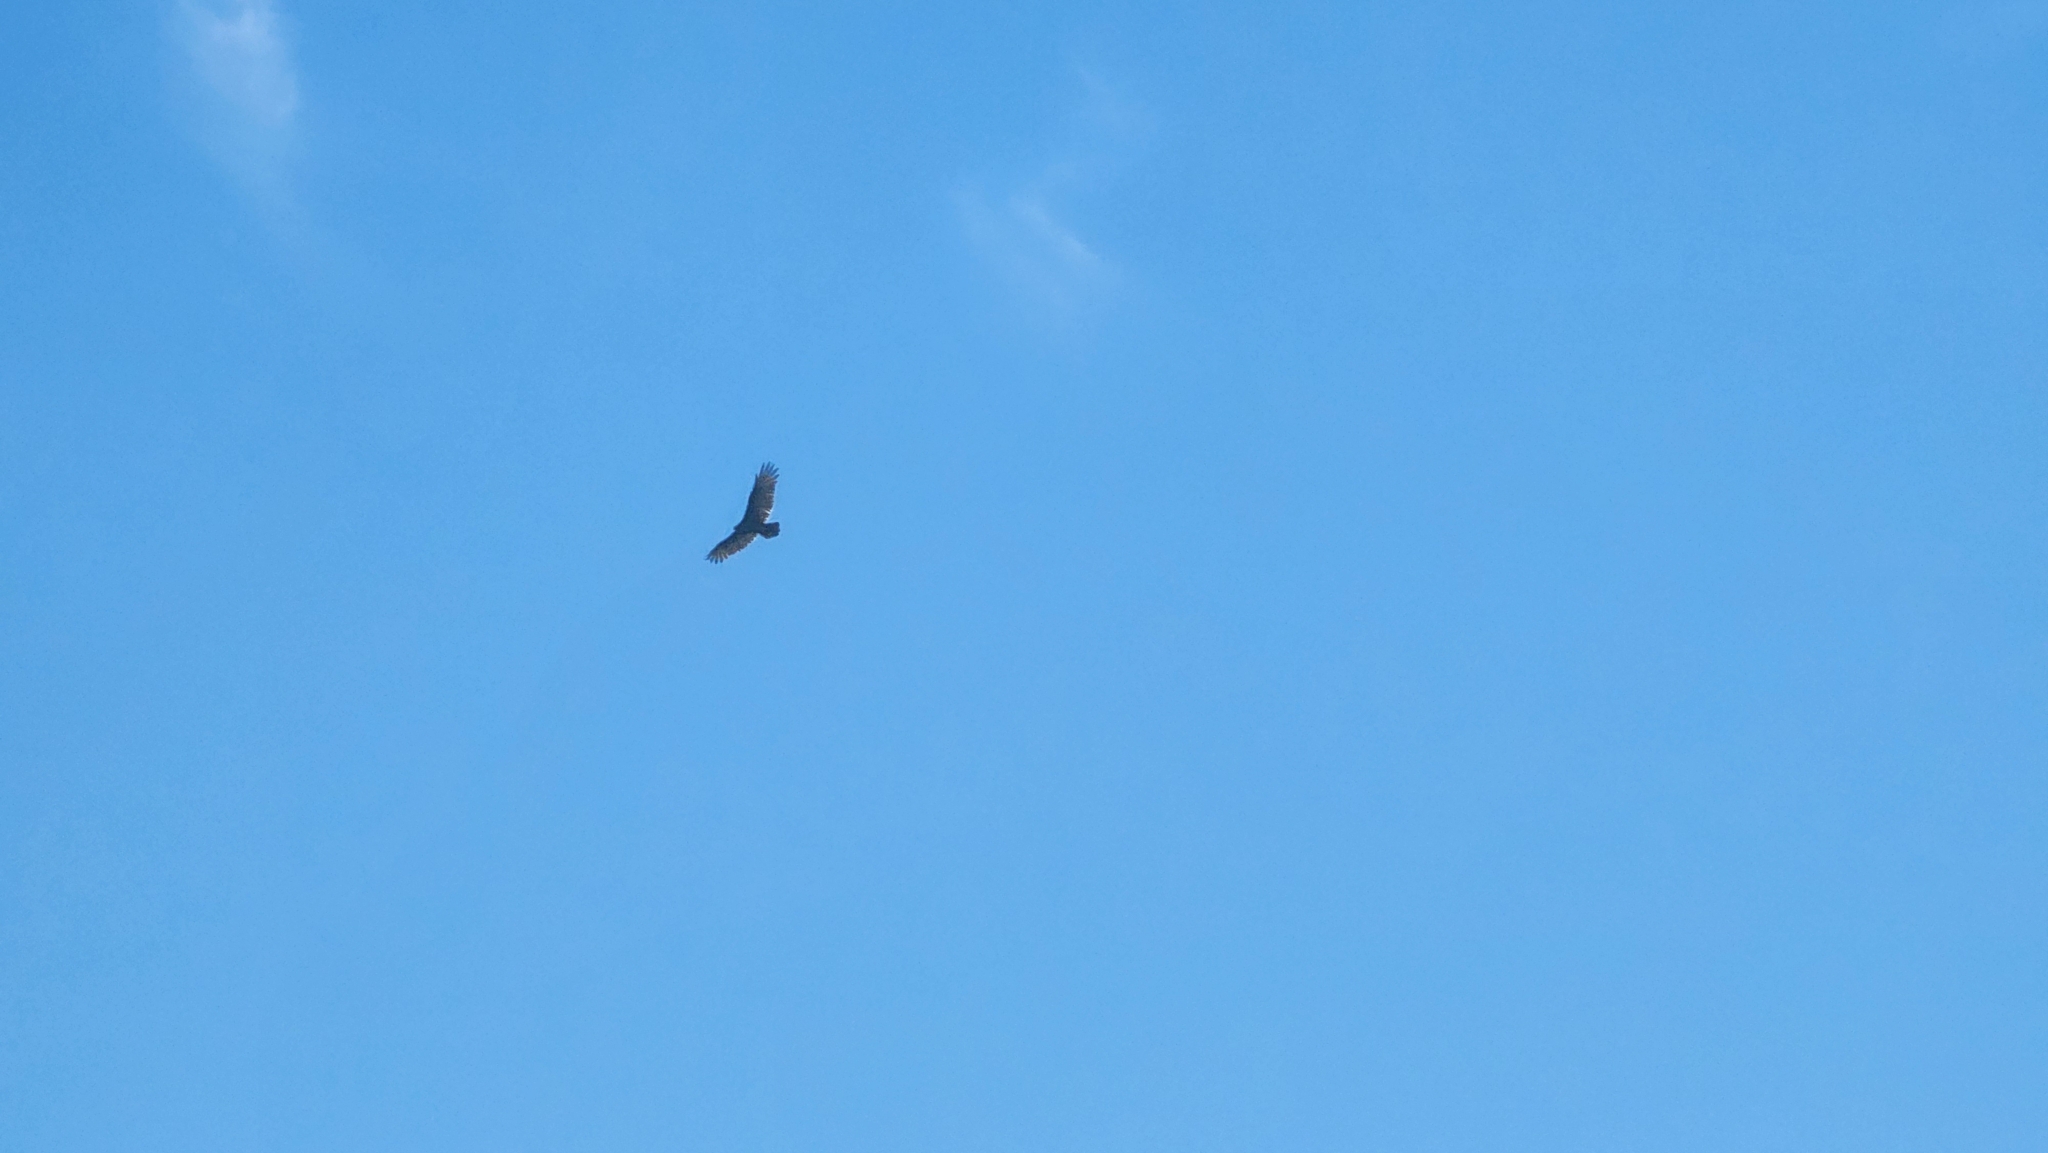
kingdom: Animalia
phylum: Chordata
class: Aves
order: Accipitriformes
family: Cathartidae
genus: Cathartes
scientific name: Cathartes aura
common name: Turkey vulture
